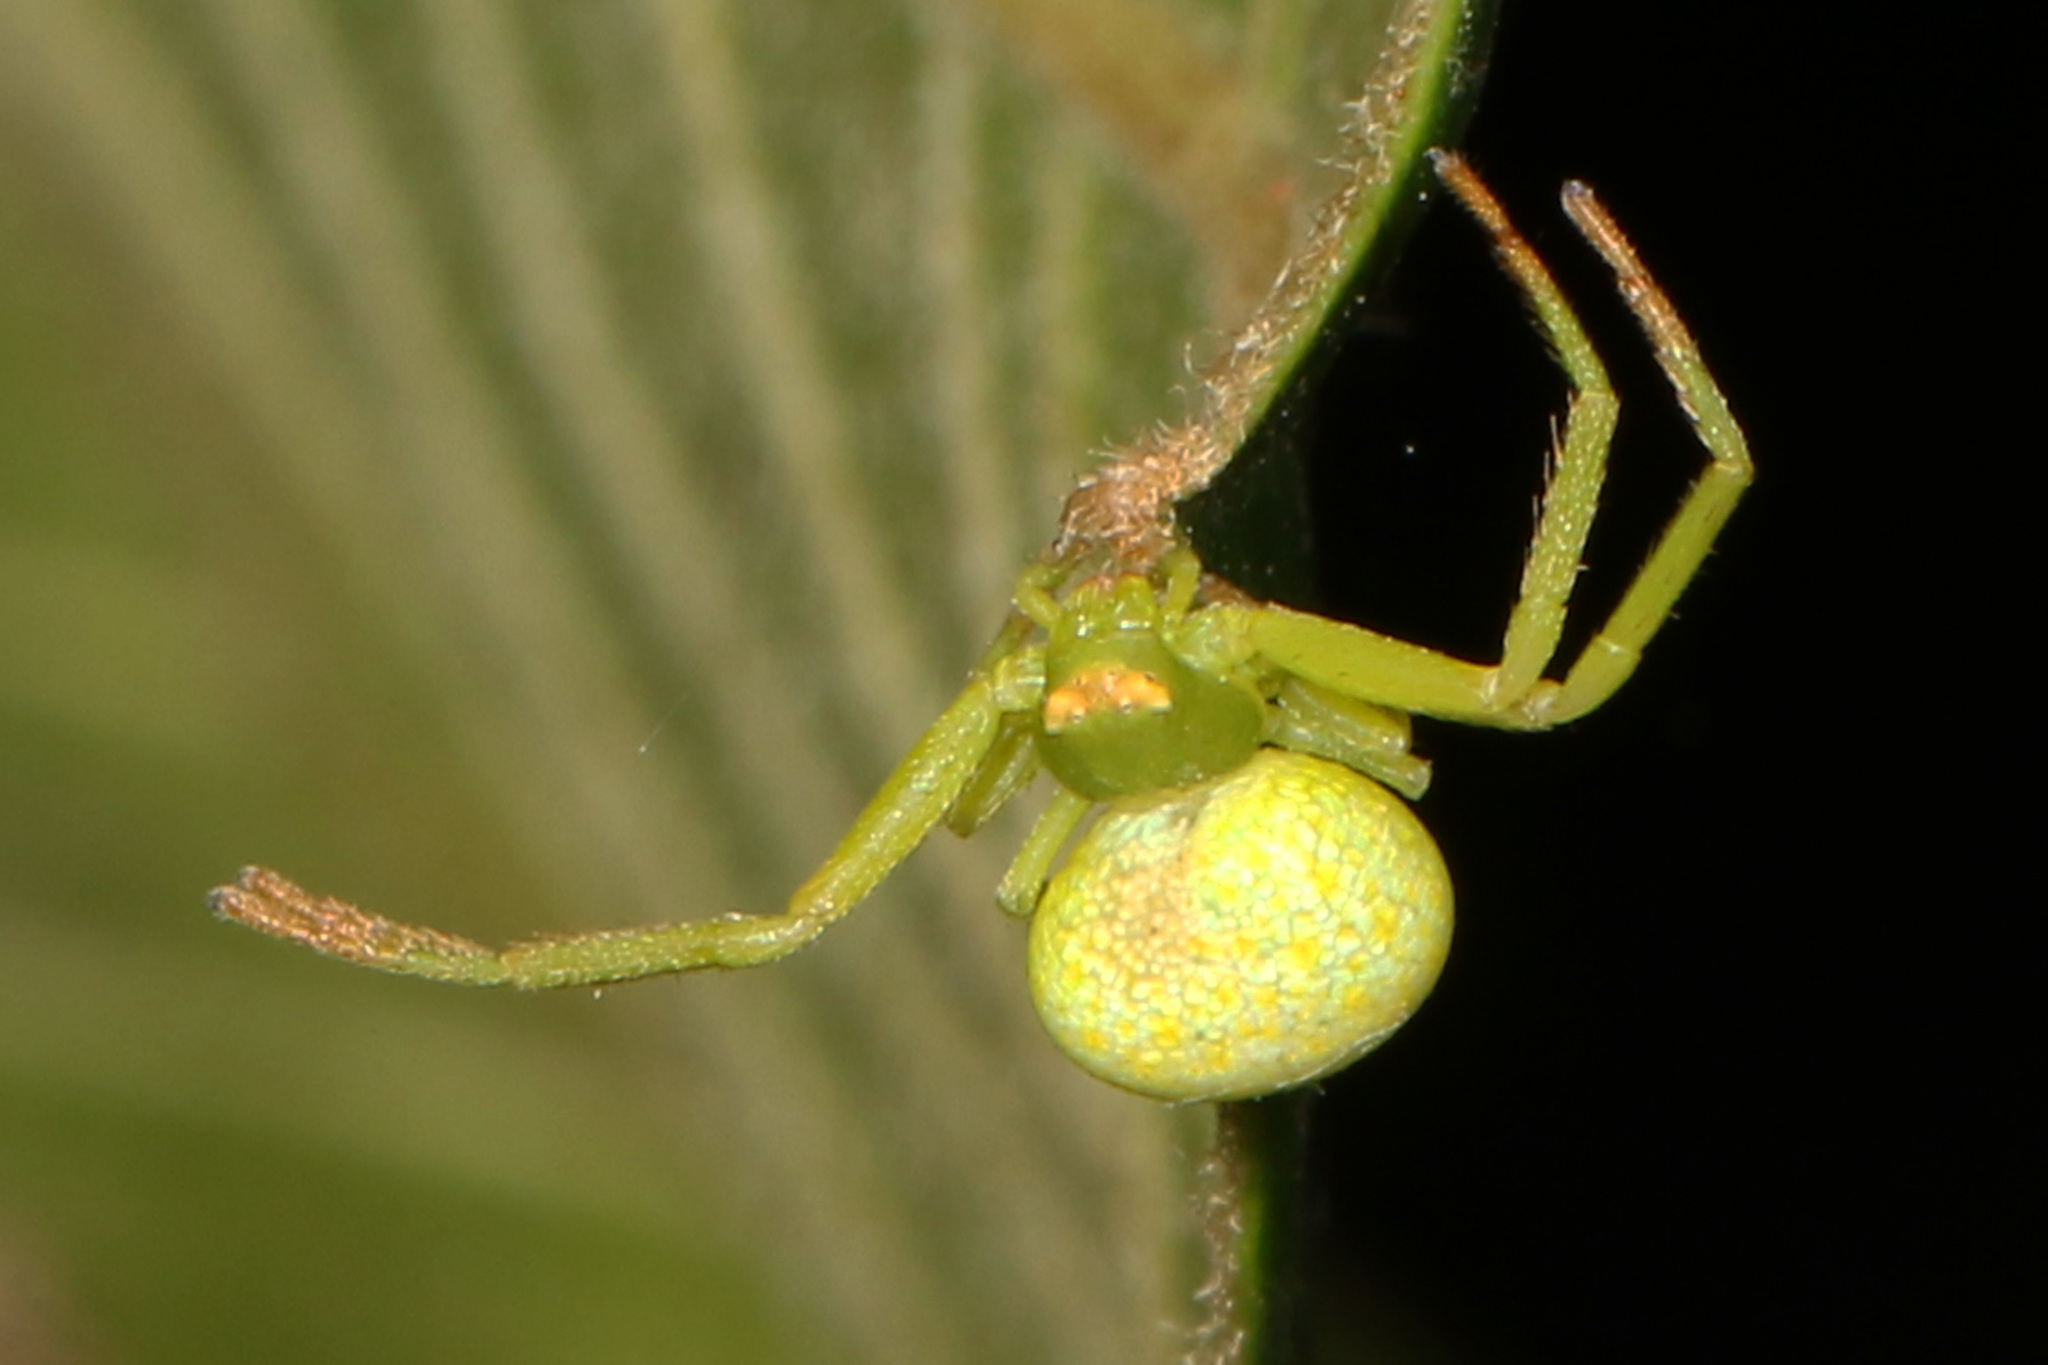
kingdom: Animalia
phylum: Arthropoda
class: Arachnida
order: Araneae
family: Thomisidae
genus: Misumenops
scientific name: Misumenops rubrodecoratus
